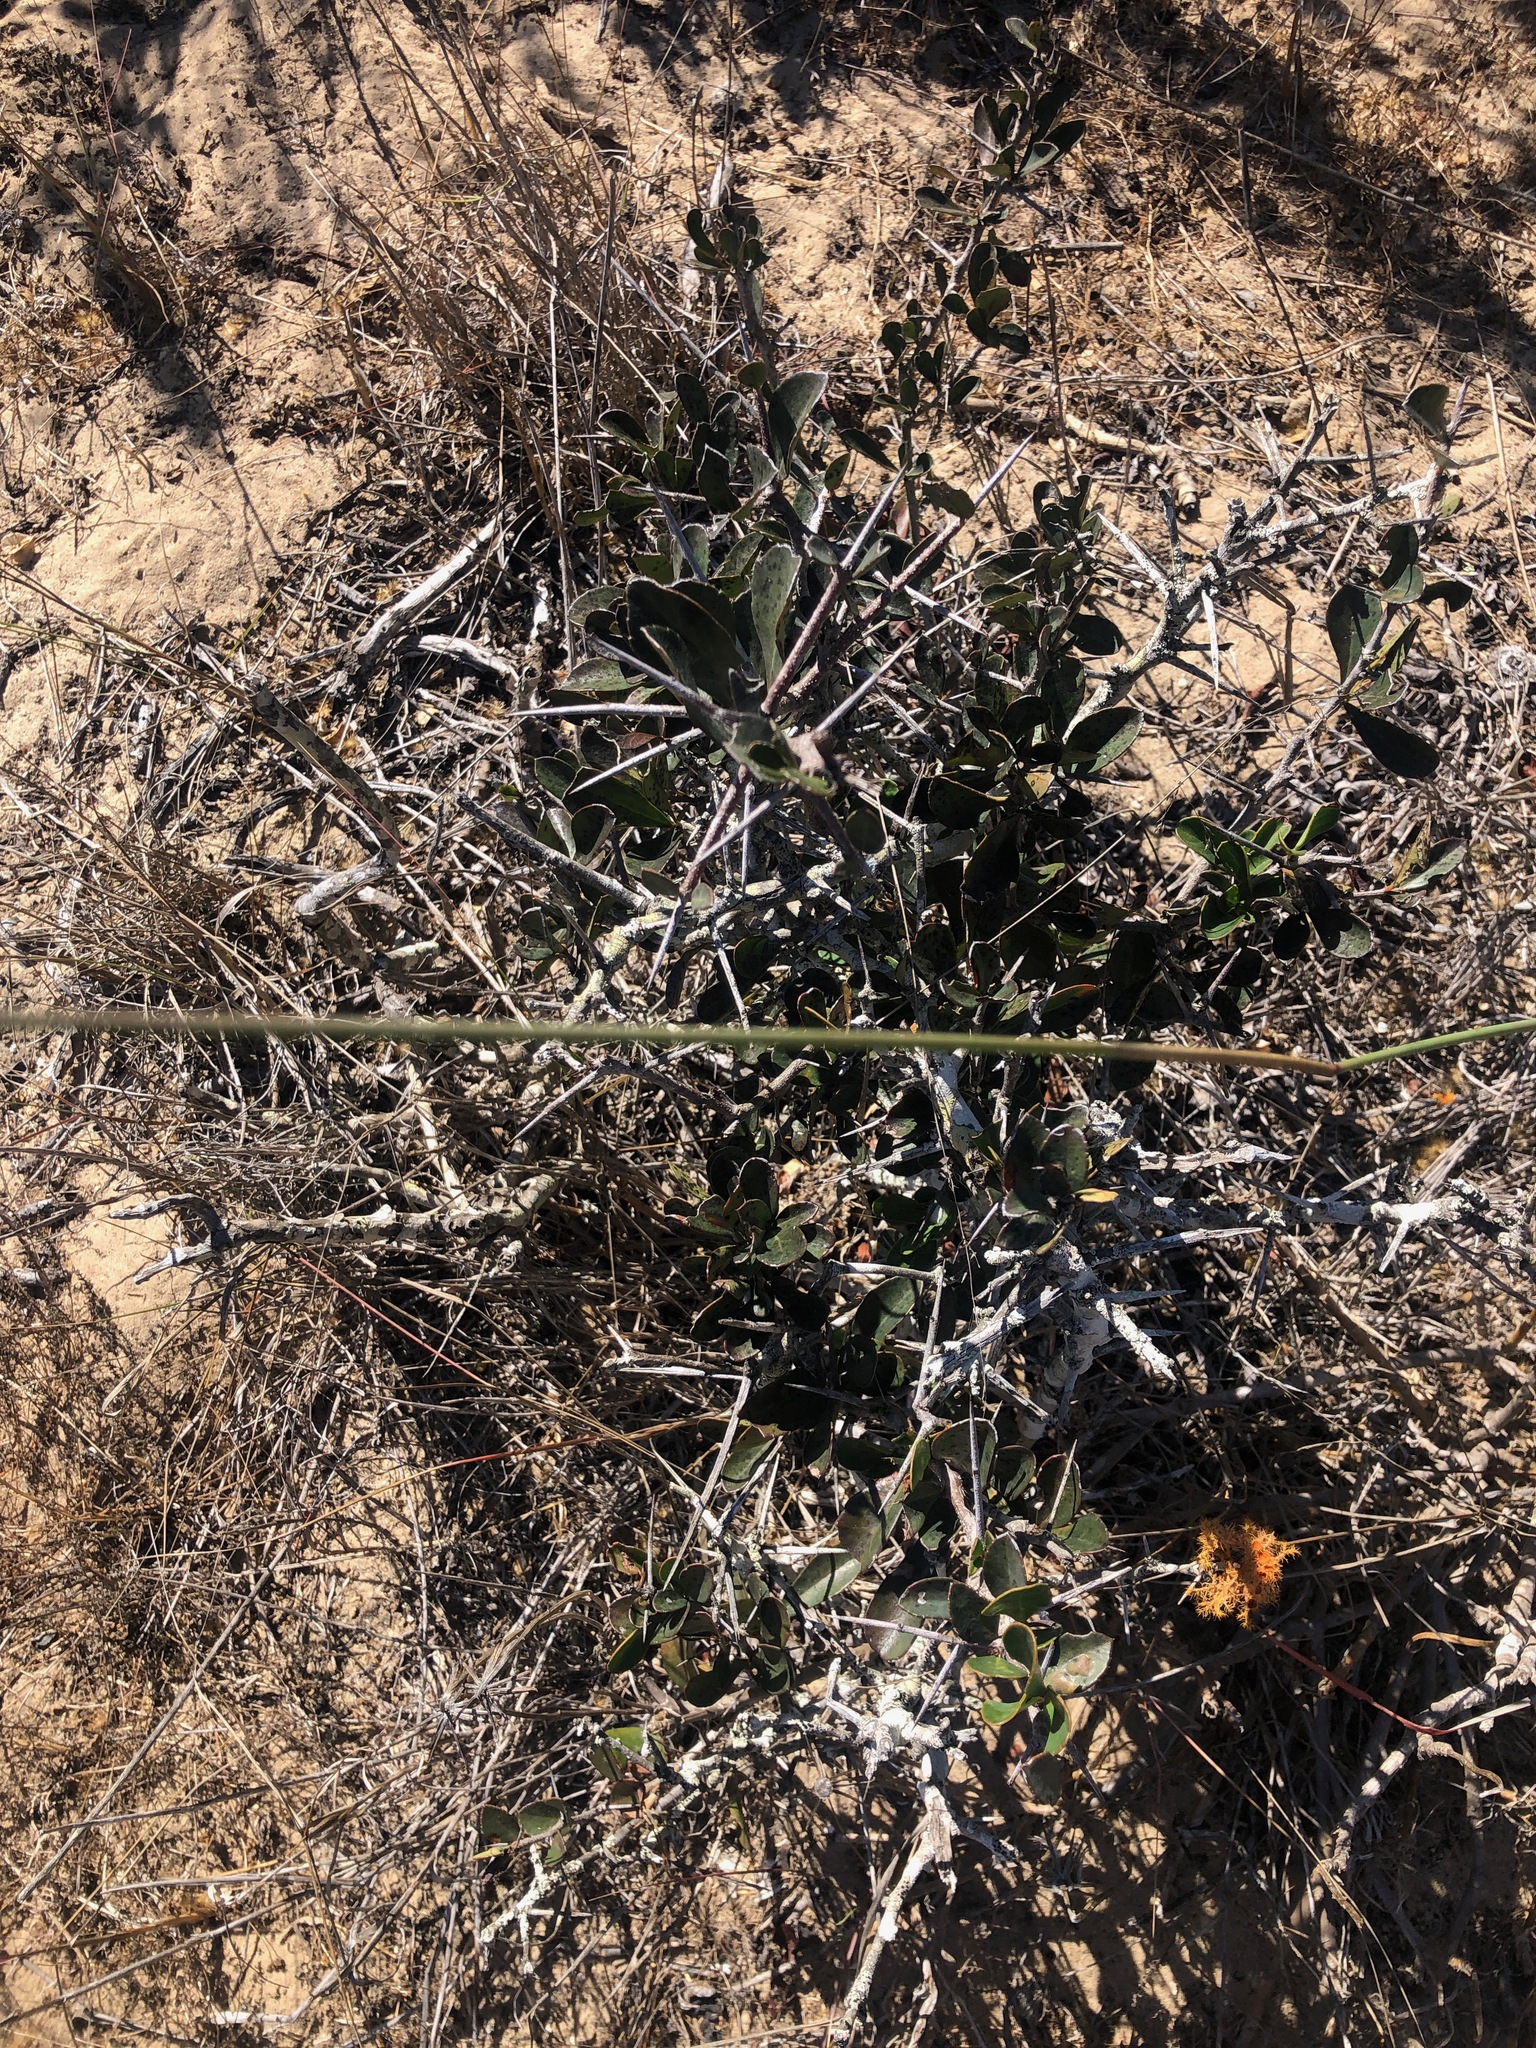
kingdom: Plantae
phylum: Tracheophyta
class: Magnoliopsida
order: Celastrales
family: Celastraceae
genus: Putterlickia
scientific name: Putterlickia pyracantha
